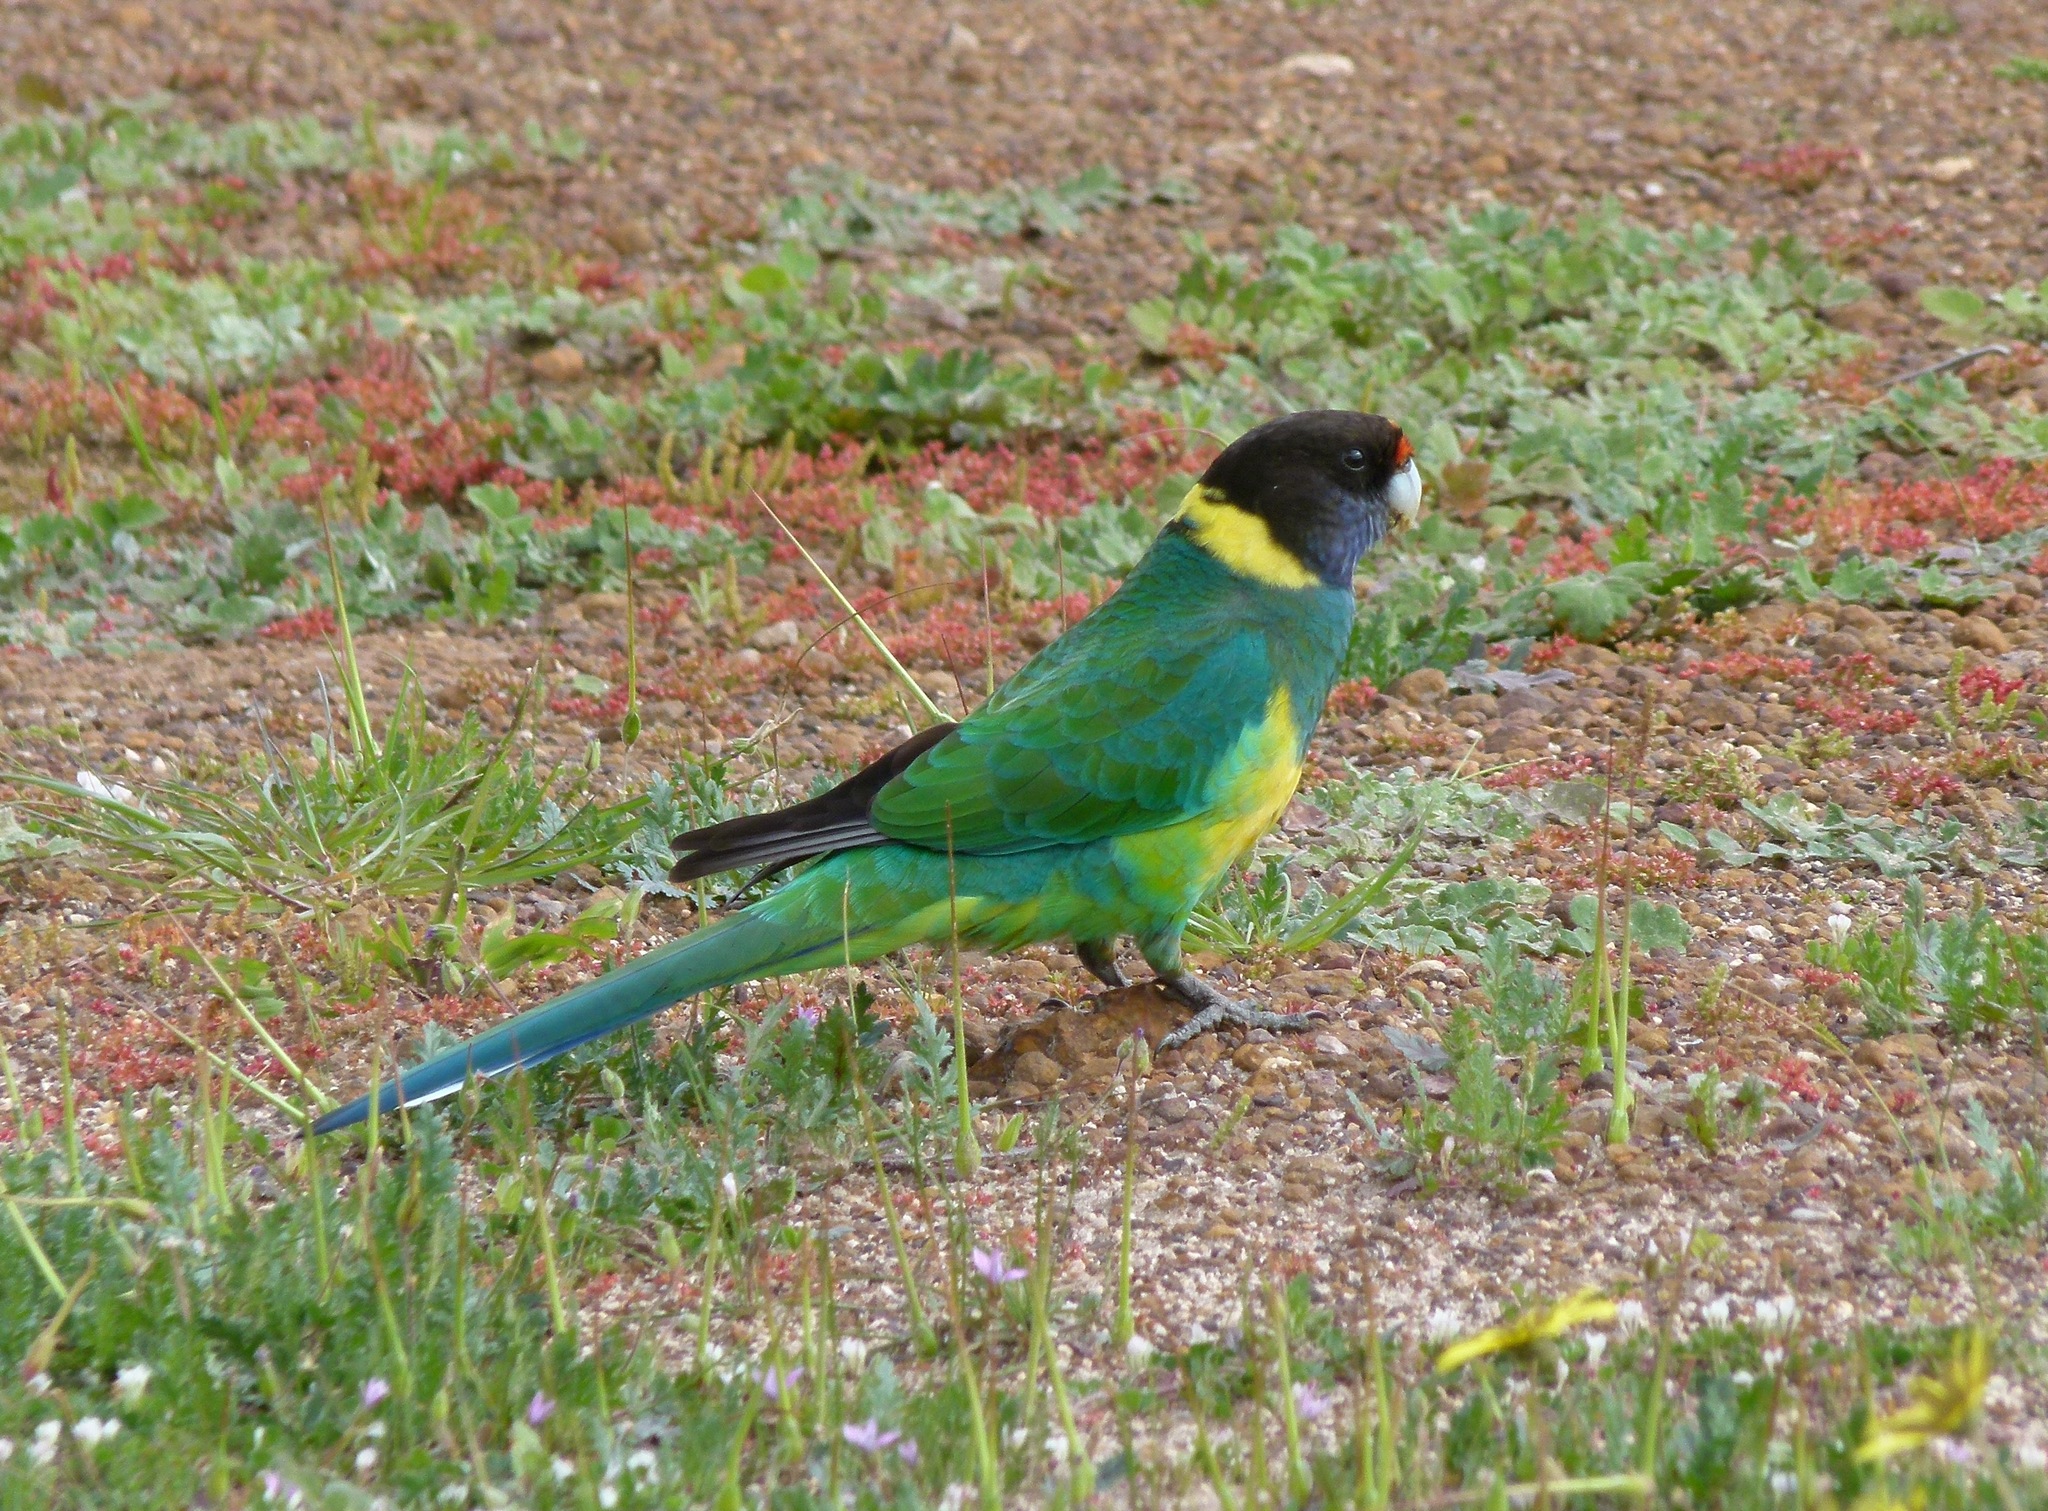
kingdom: Animalia
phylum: Chordata
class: Aves
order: Psittaciformes
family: Psittacidae
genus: Barnardius
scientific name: Barnardius zonarius
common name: Australian ringneck
